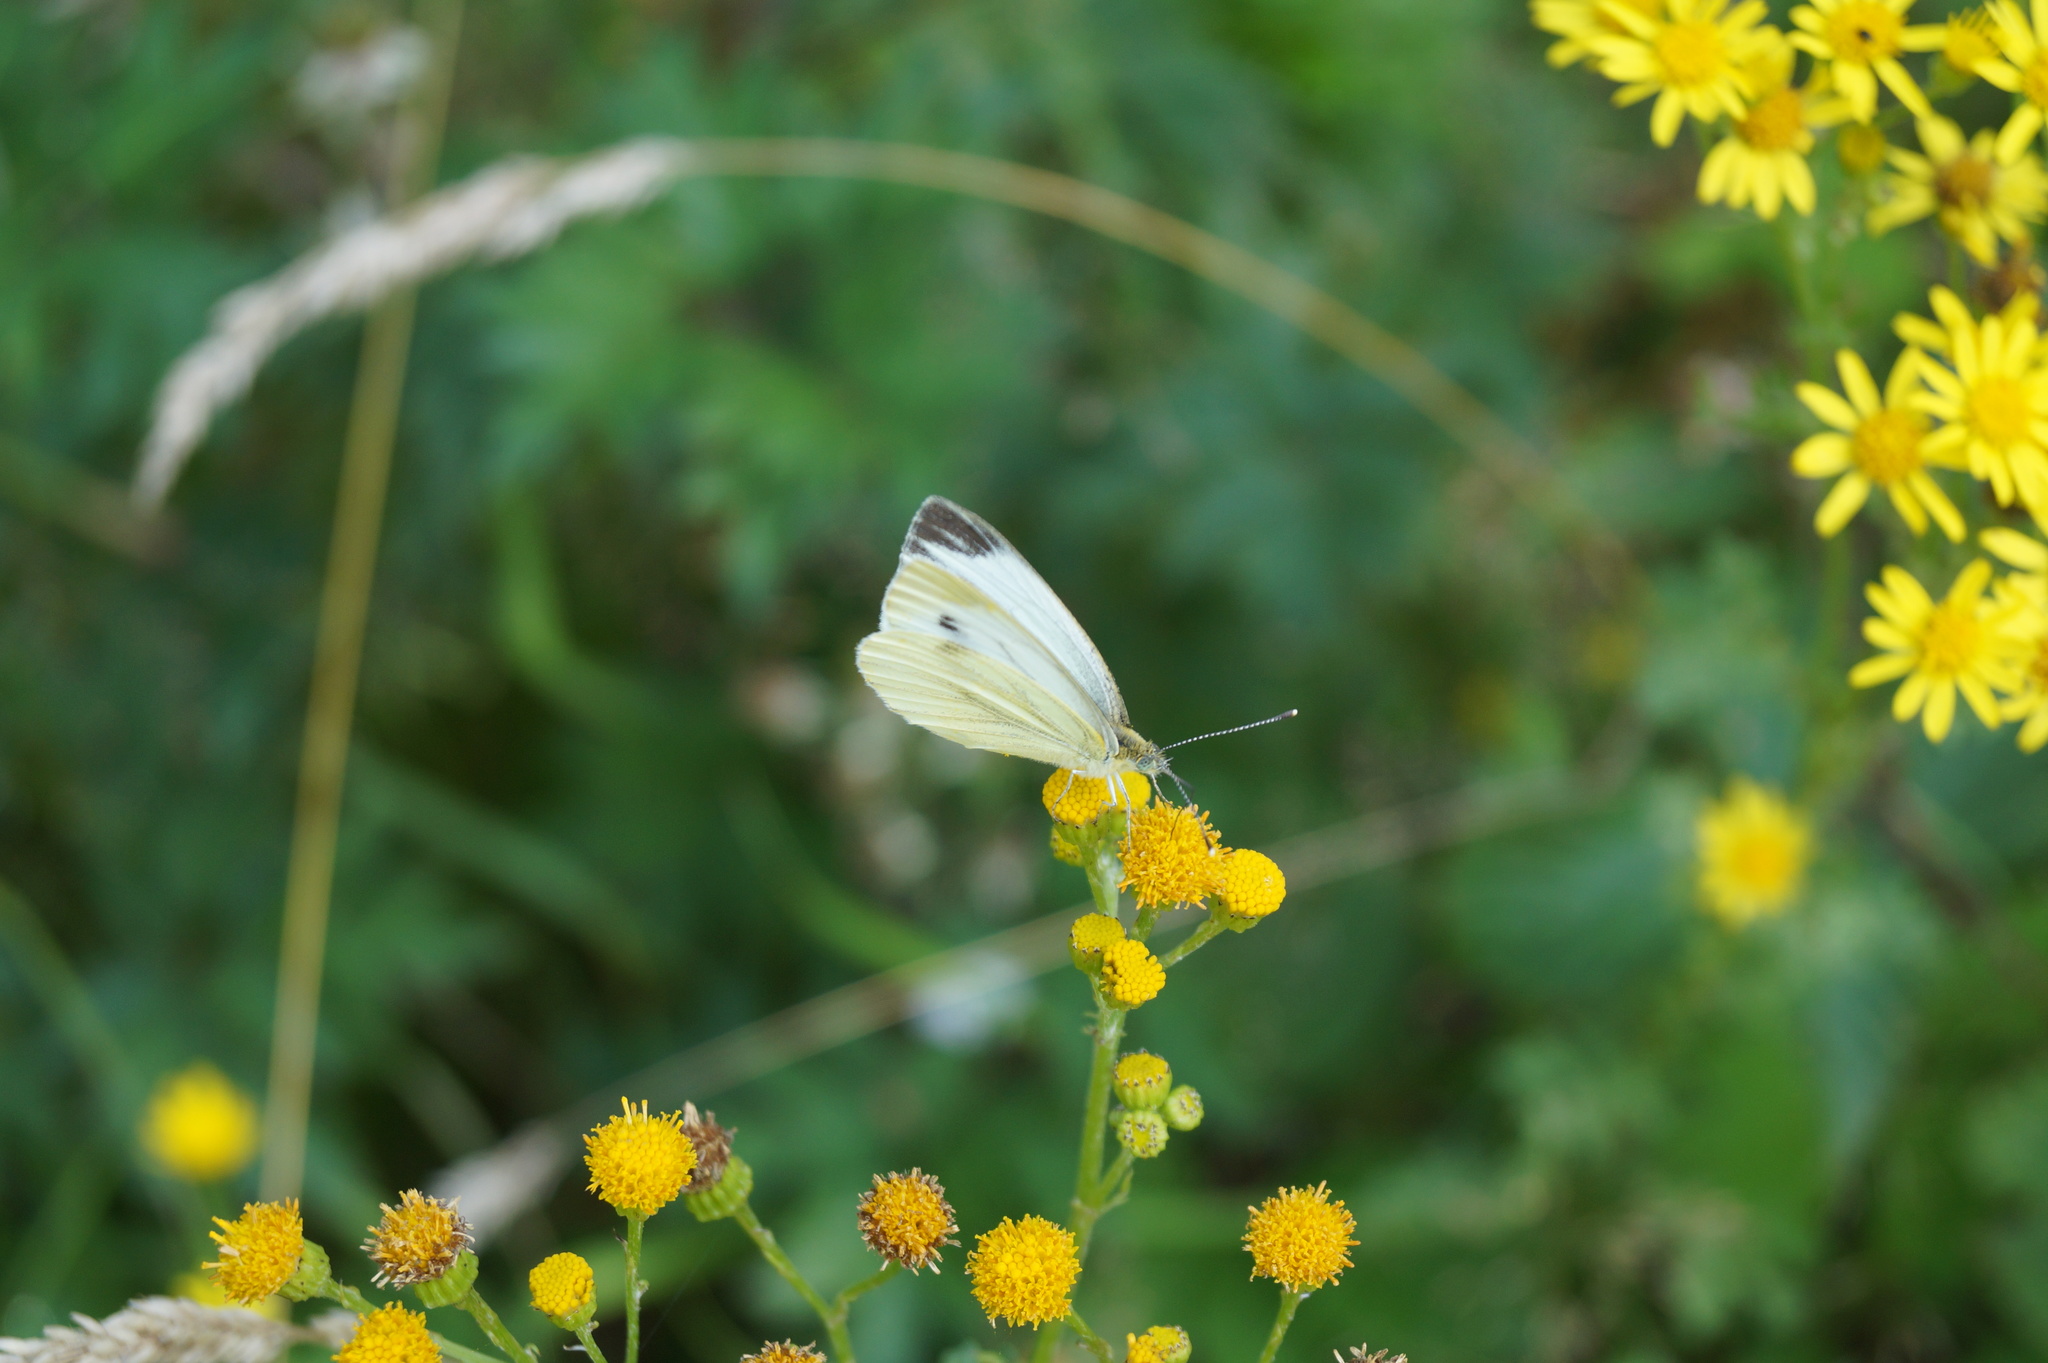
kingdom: Animalia
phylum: Arthropoda
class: Insecta
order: Lepidoptera
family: Pieridae
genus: Pieris
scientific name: Pieris napi
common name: Green-veined white
